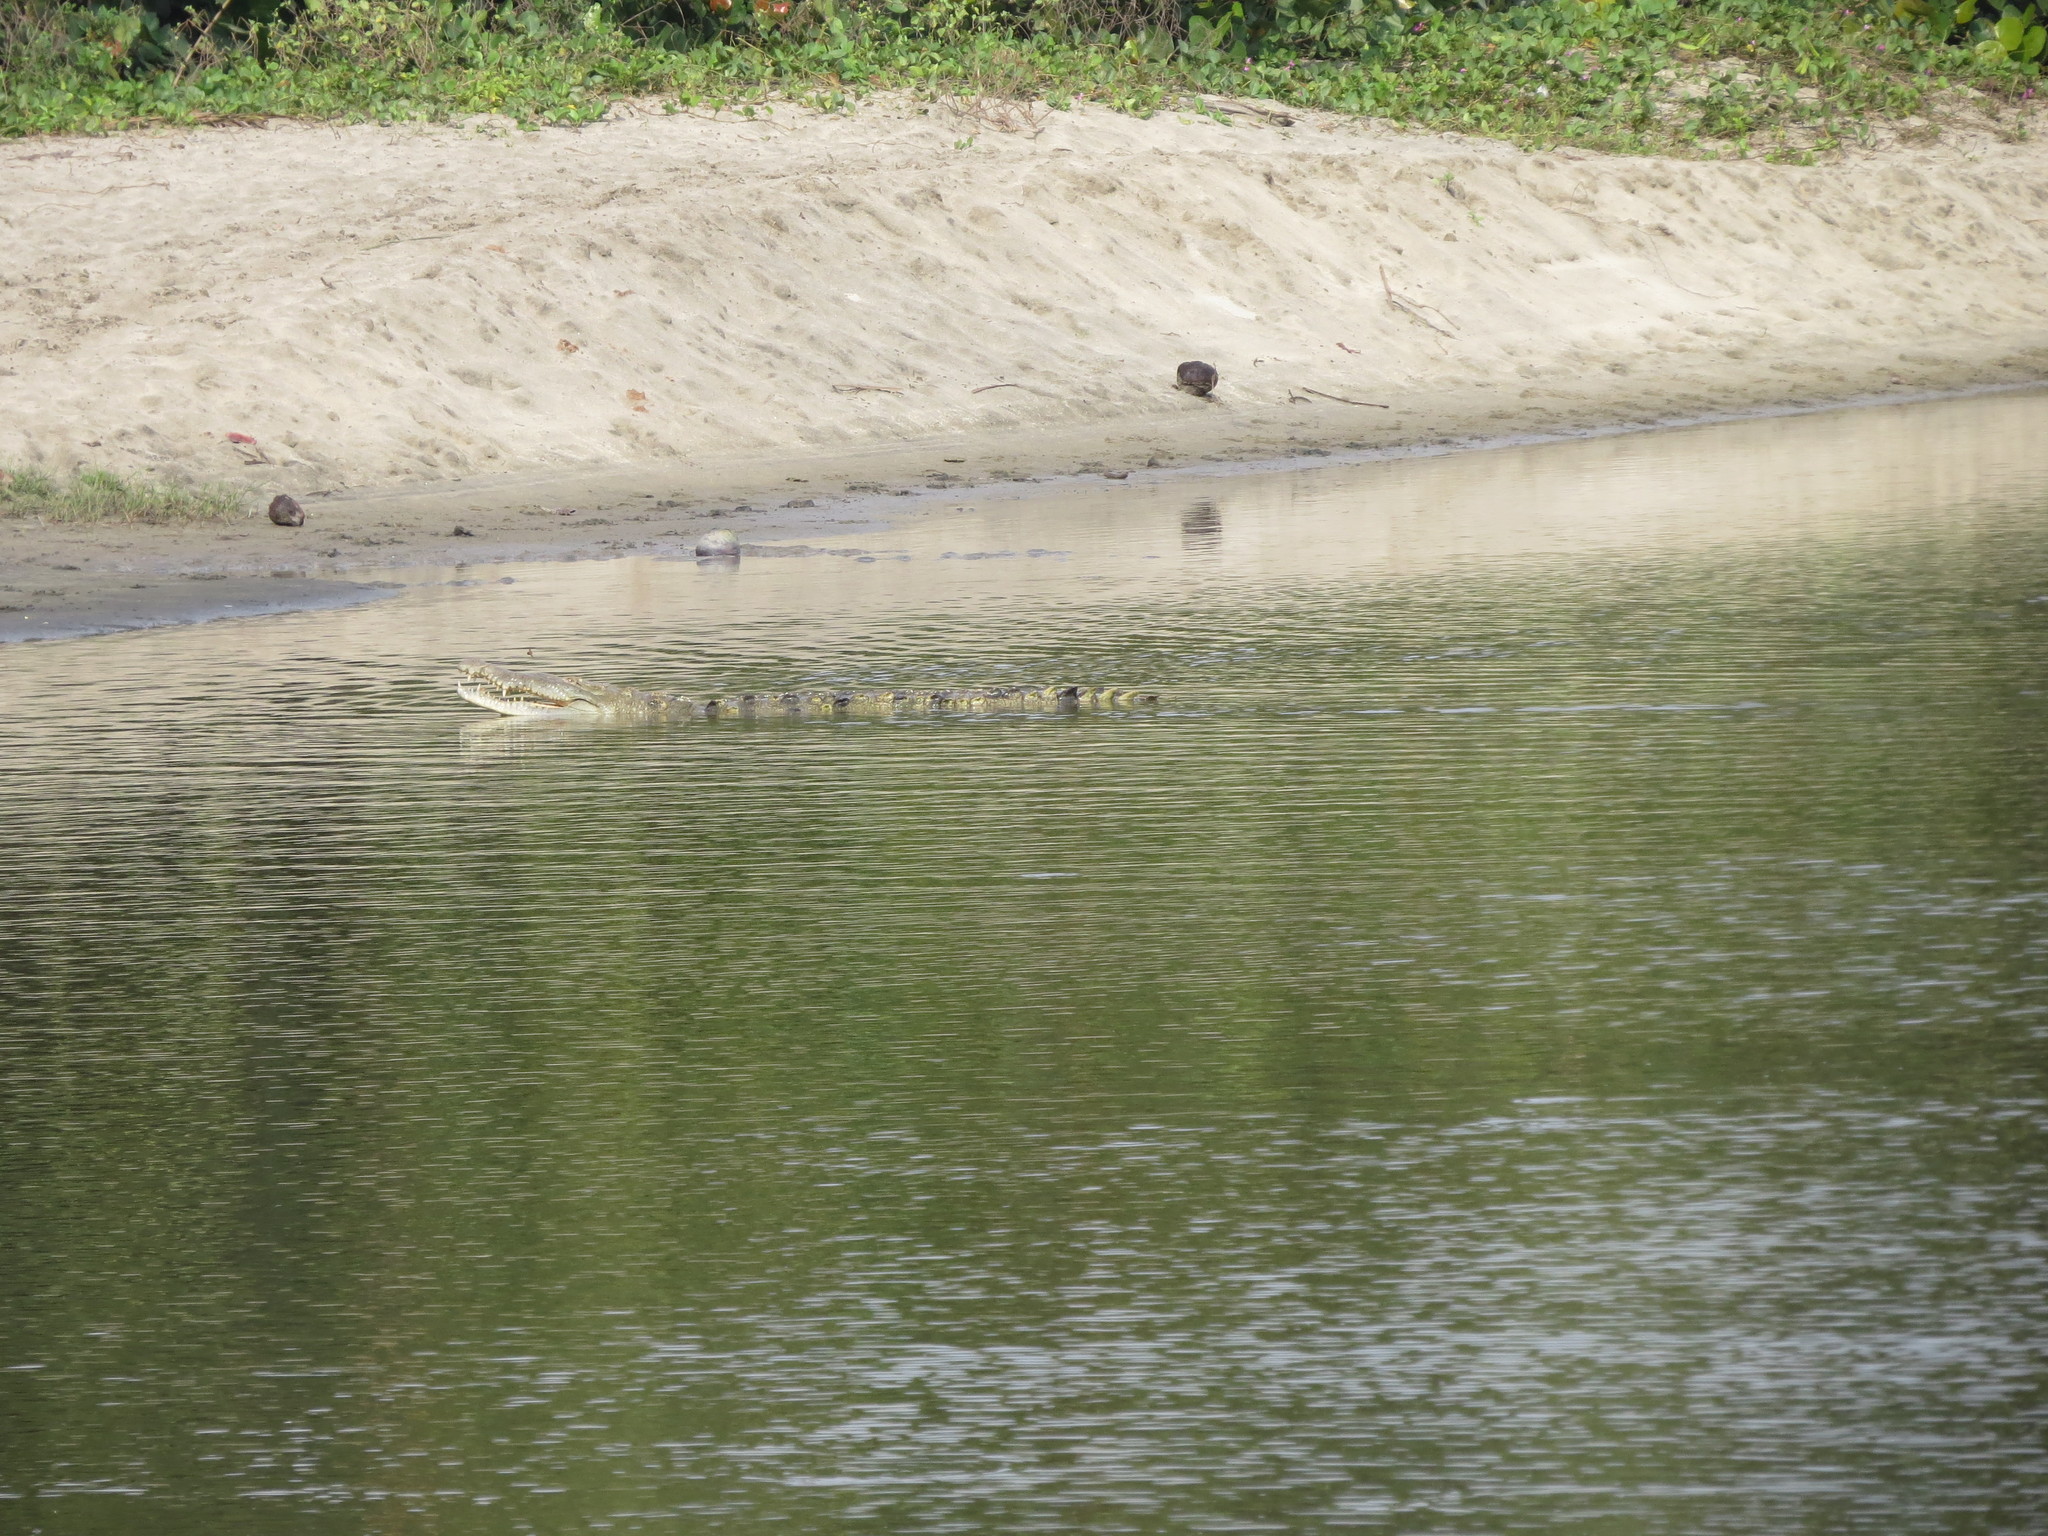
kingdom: Animalia
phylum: Chordata
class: Crocodylia
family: Crocodylidae
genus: Crocodylus
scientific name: Crocodylus acutus
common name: American crocodile
